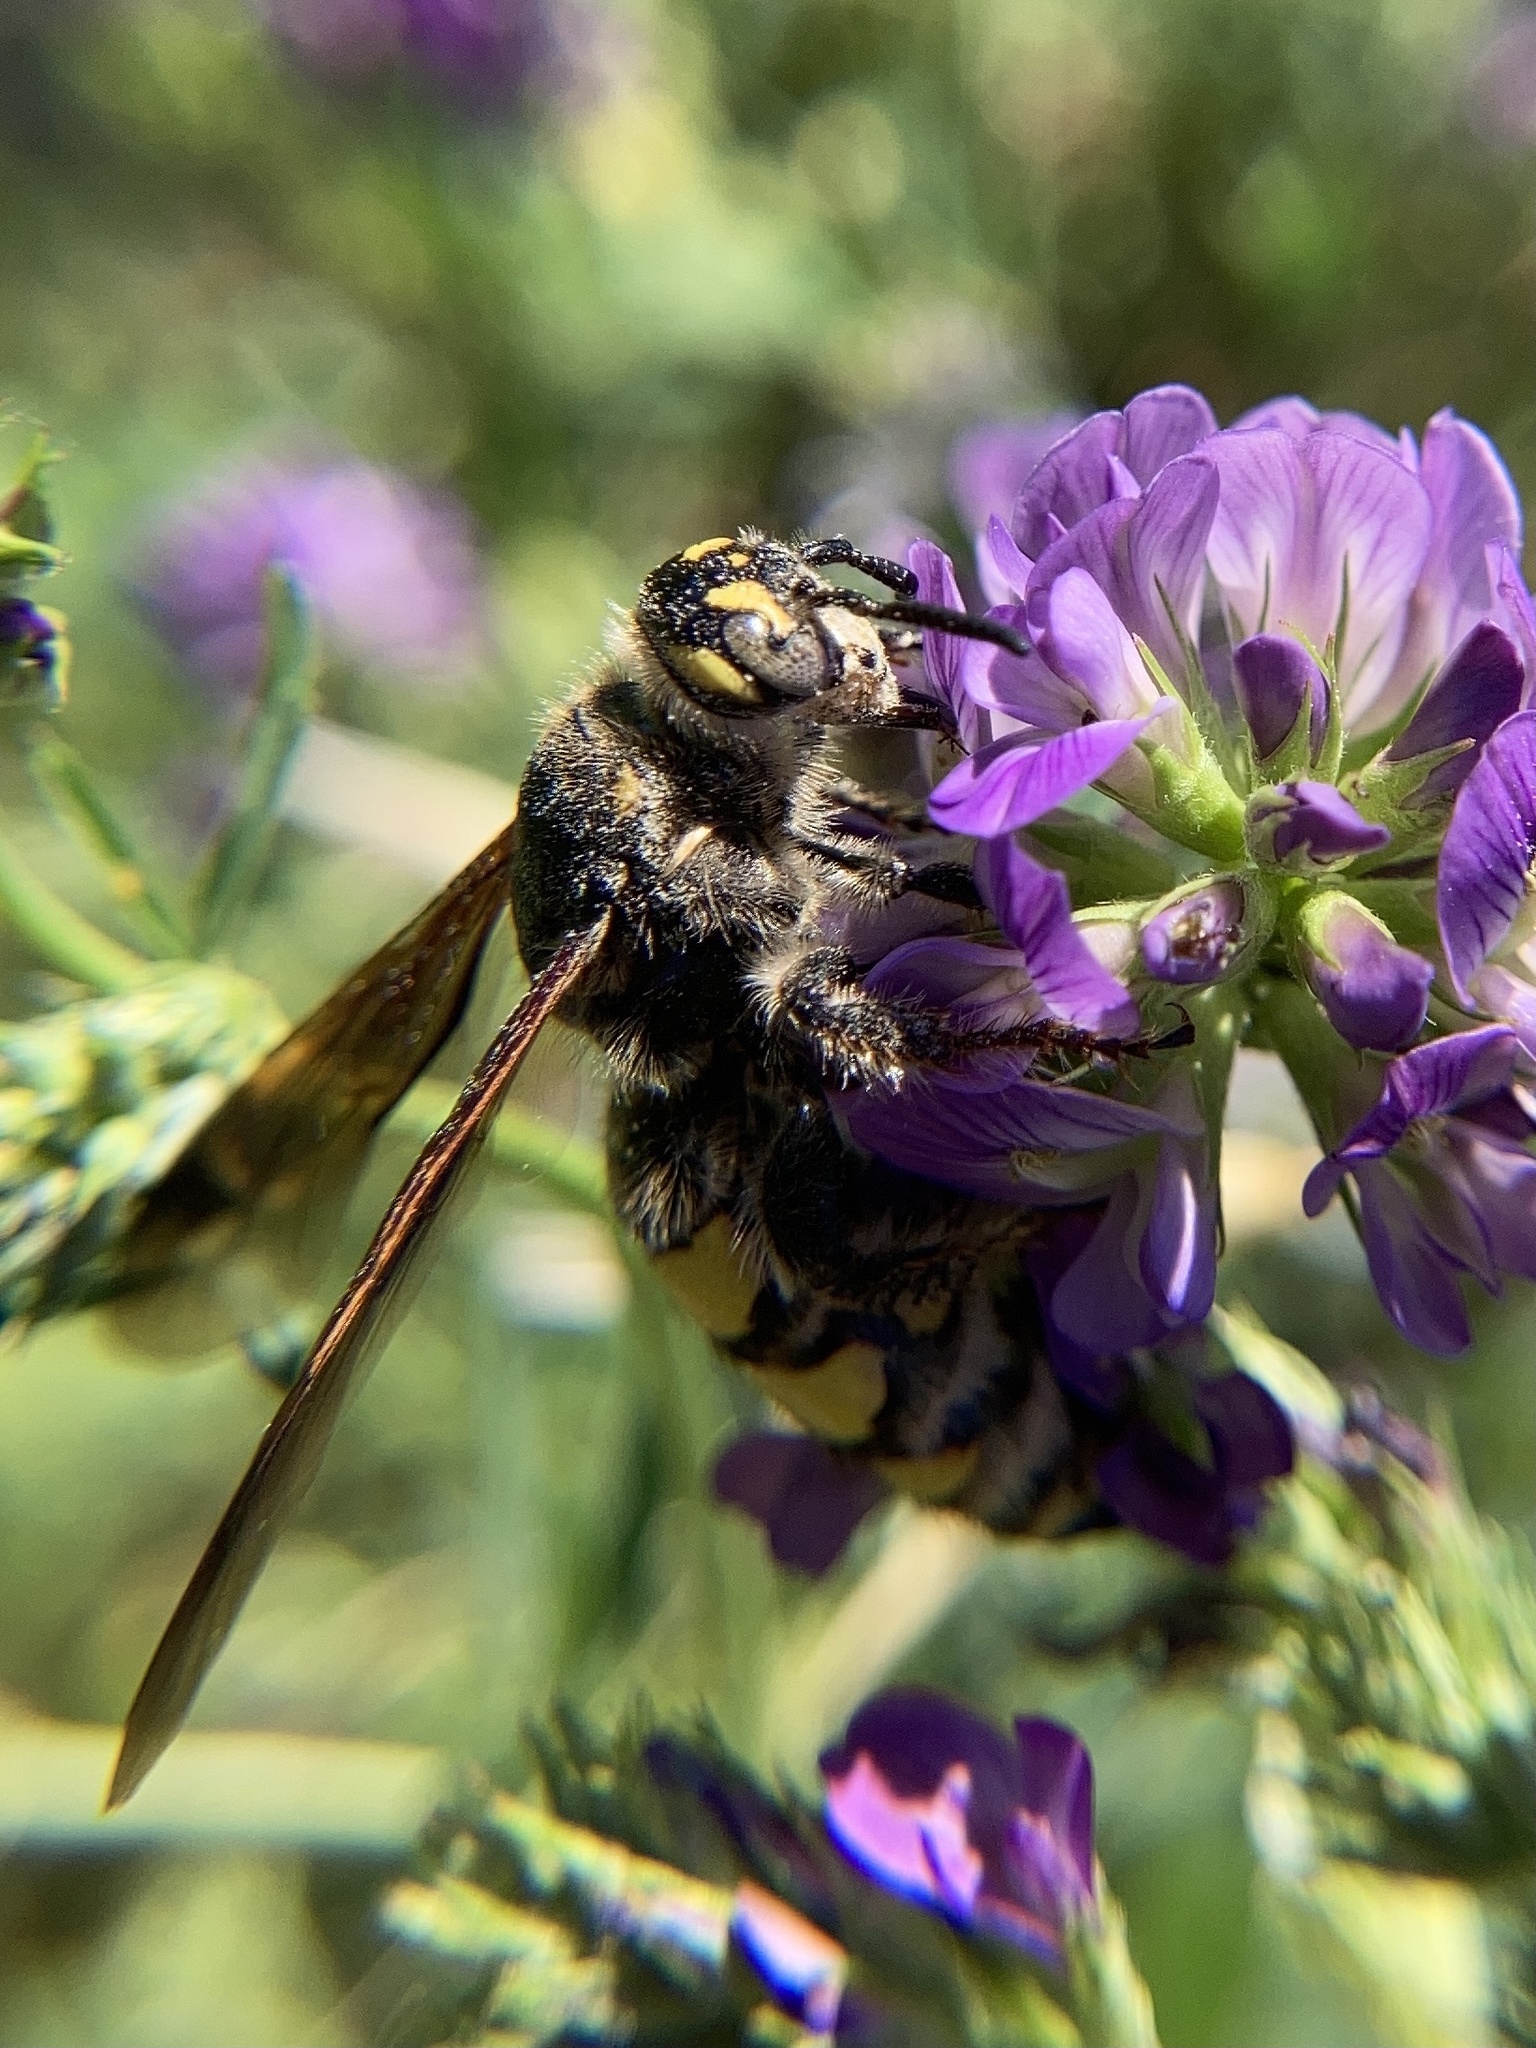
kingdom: Animalia
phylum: Arthropoda
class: Insecta
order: Hymenoptera
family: Vespidae
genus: Vespa
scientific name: Vespa sexmaculata
